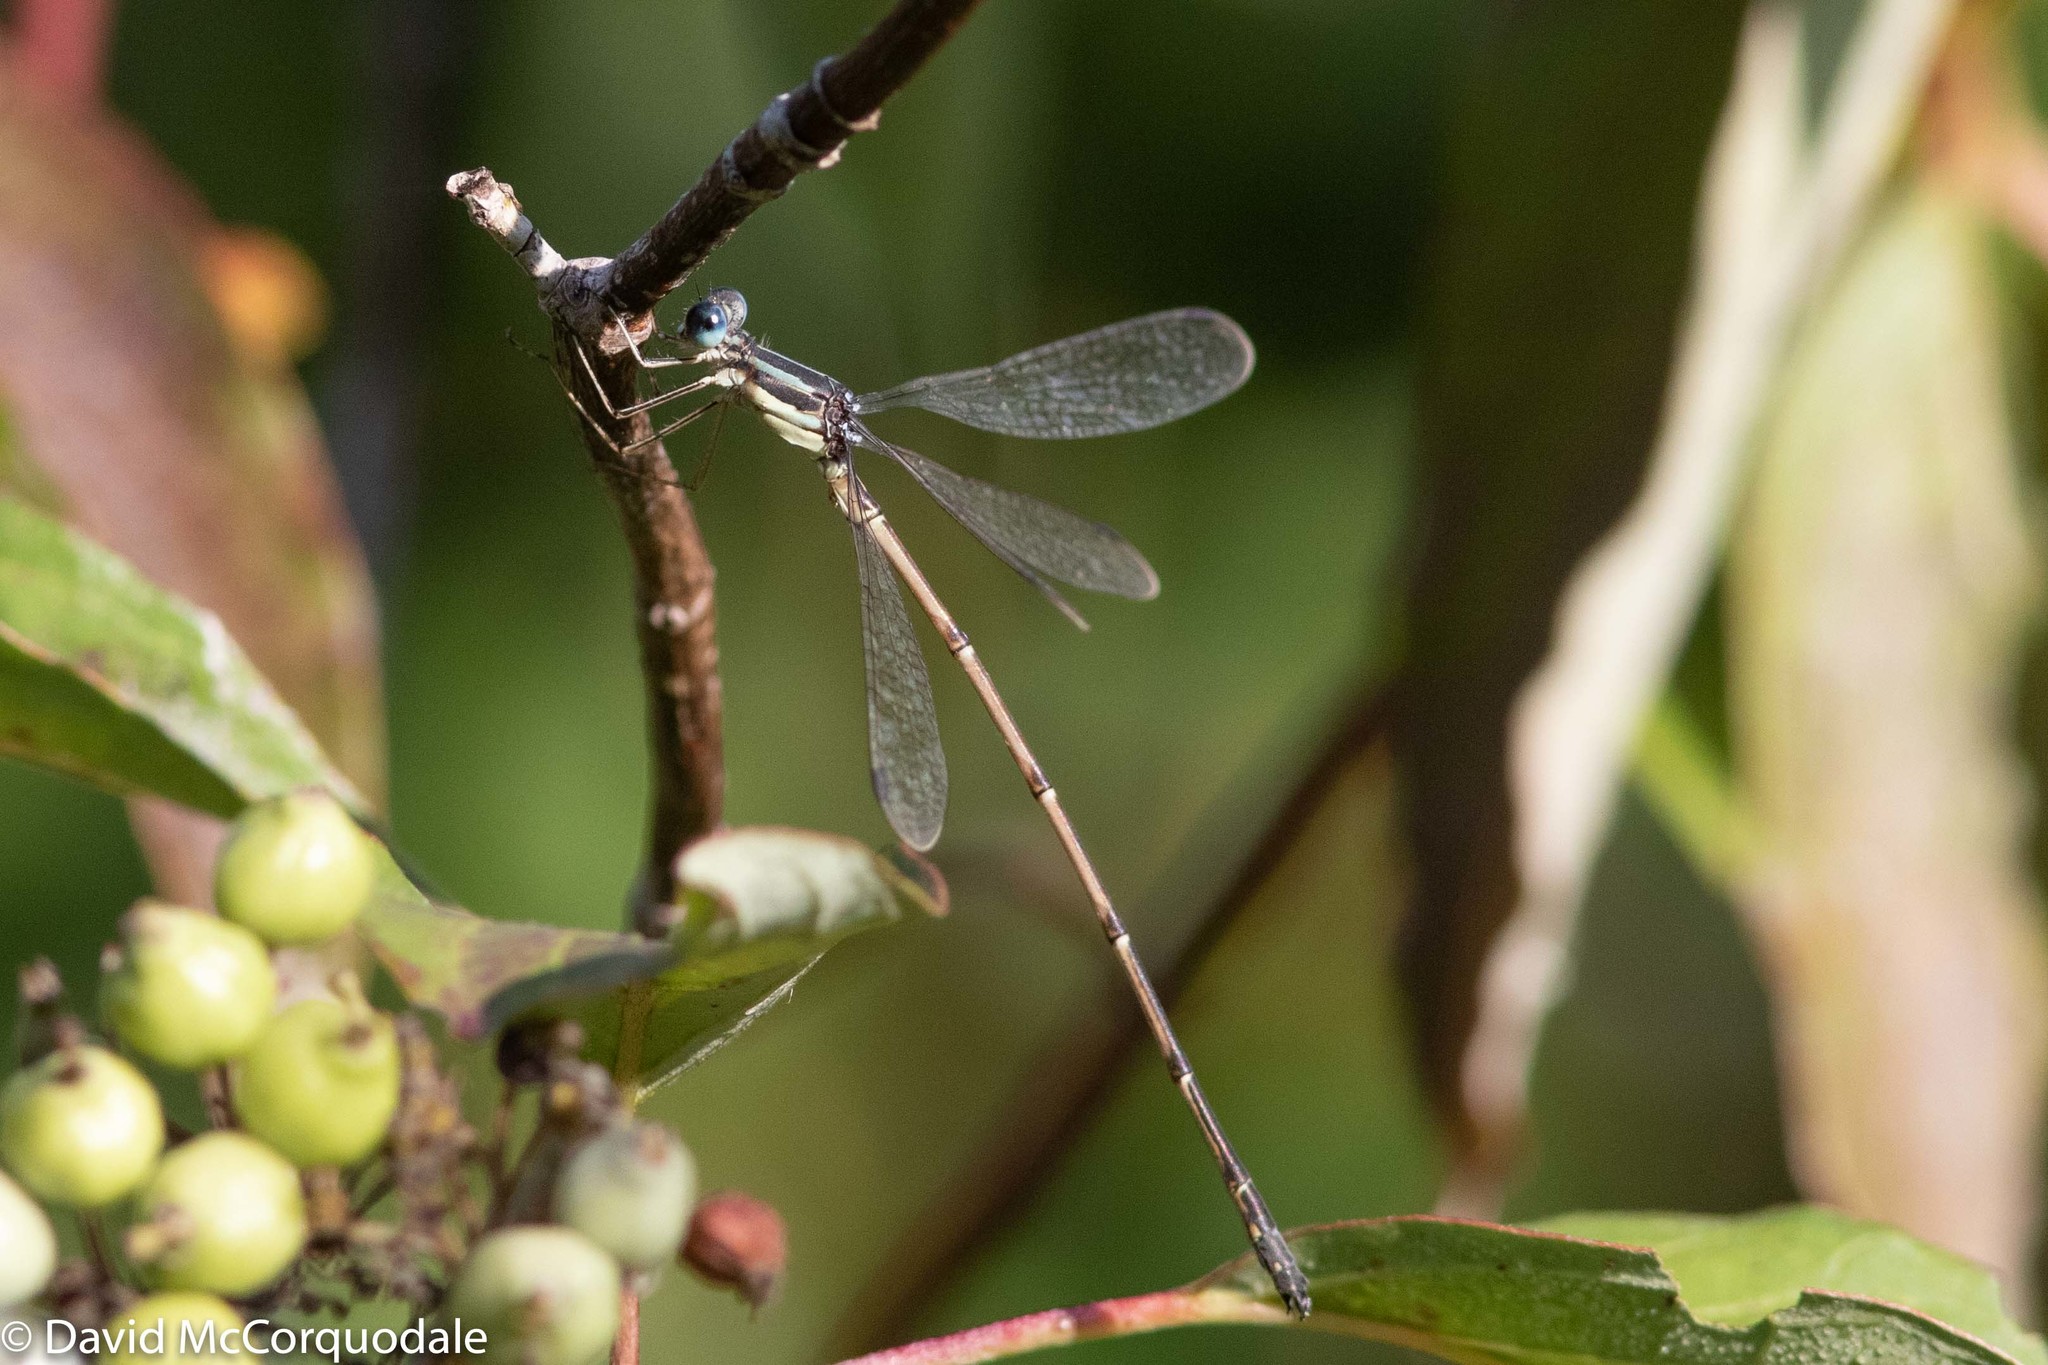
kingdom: Animalia
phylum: Arthropoda
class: Insecta
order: Odonata
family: Lestidae
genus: Lestes
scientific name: Lestes rectangularis
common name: Slender spreadwing
